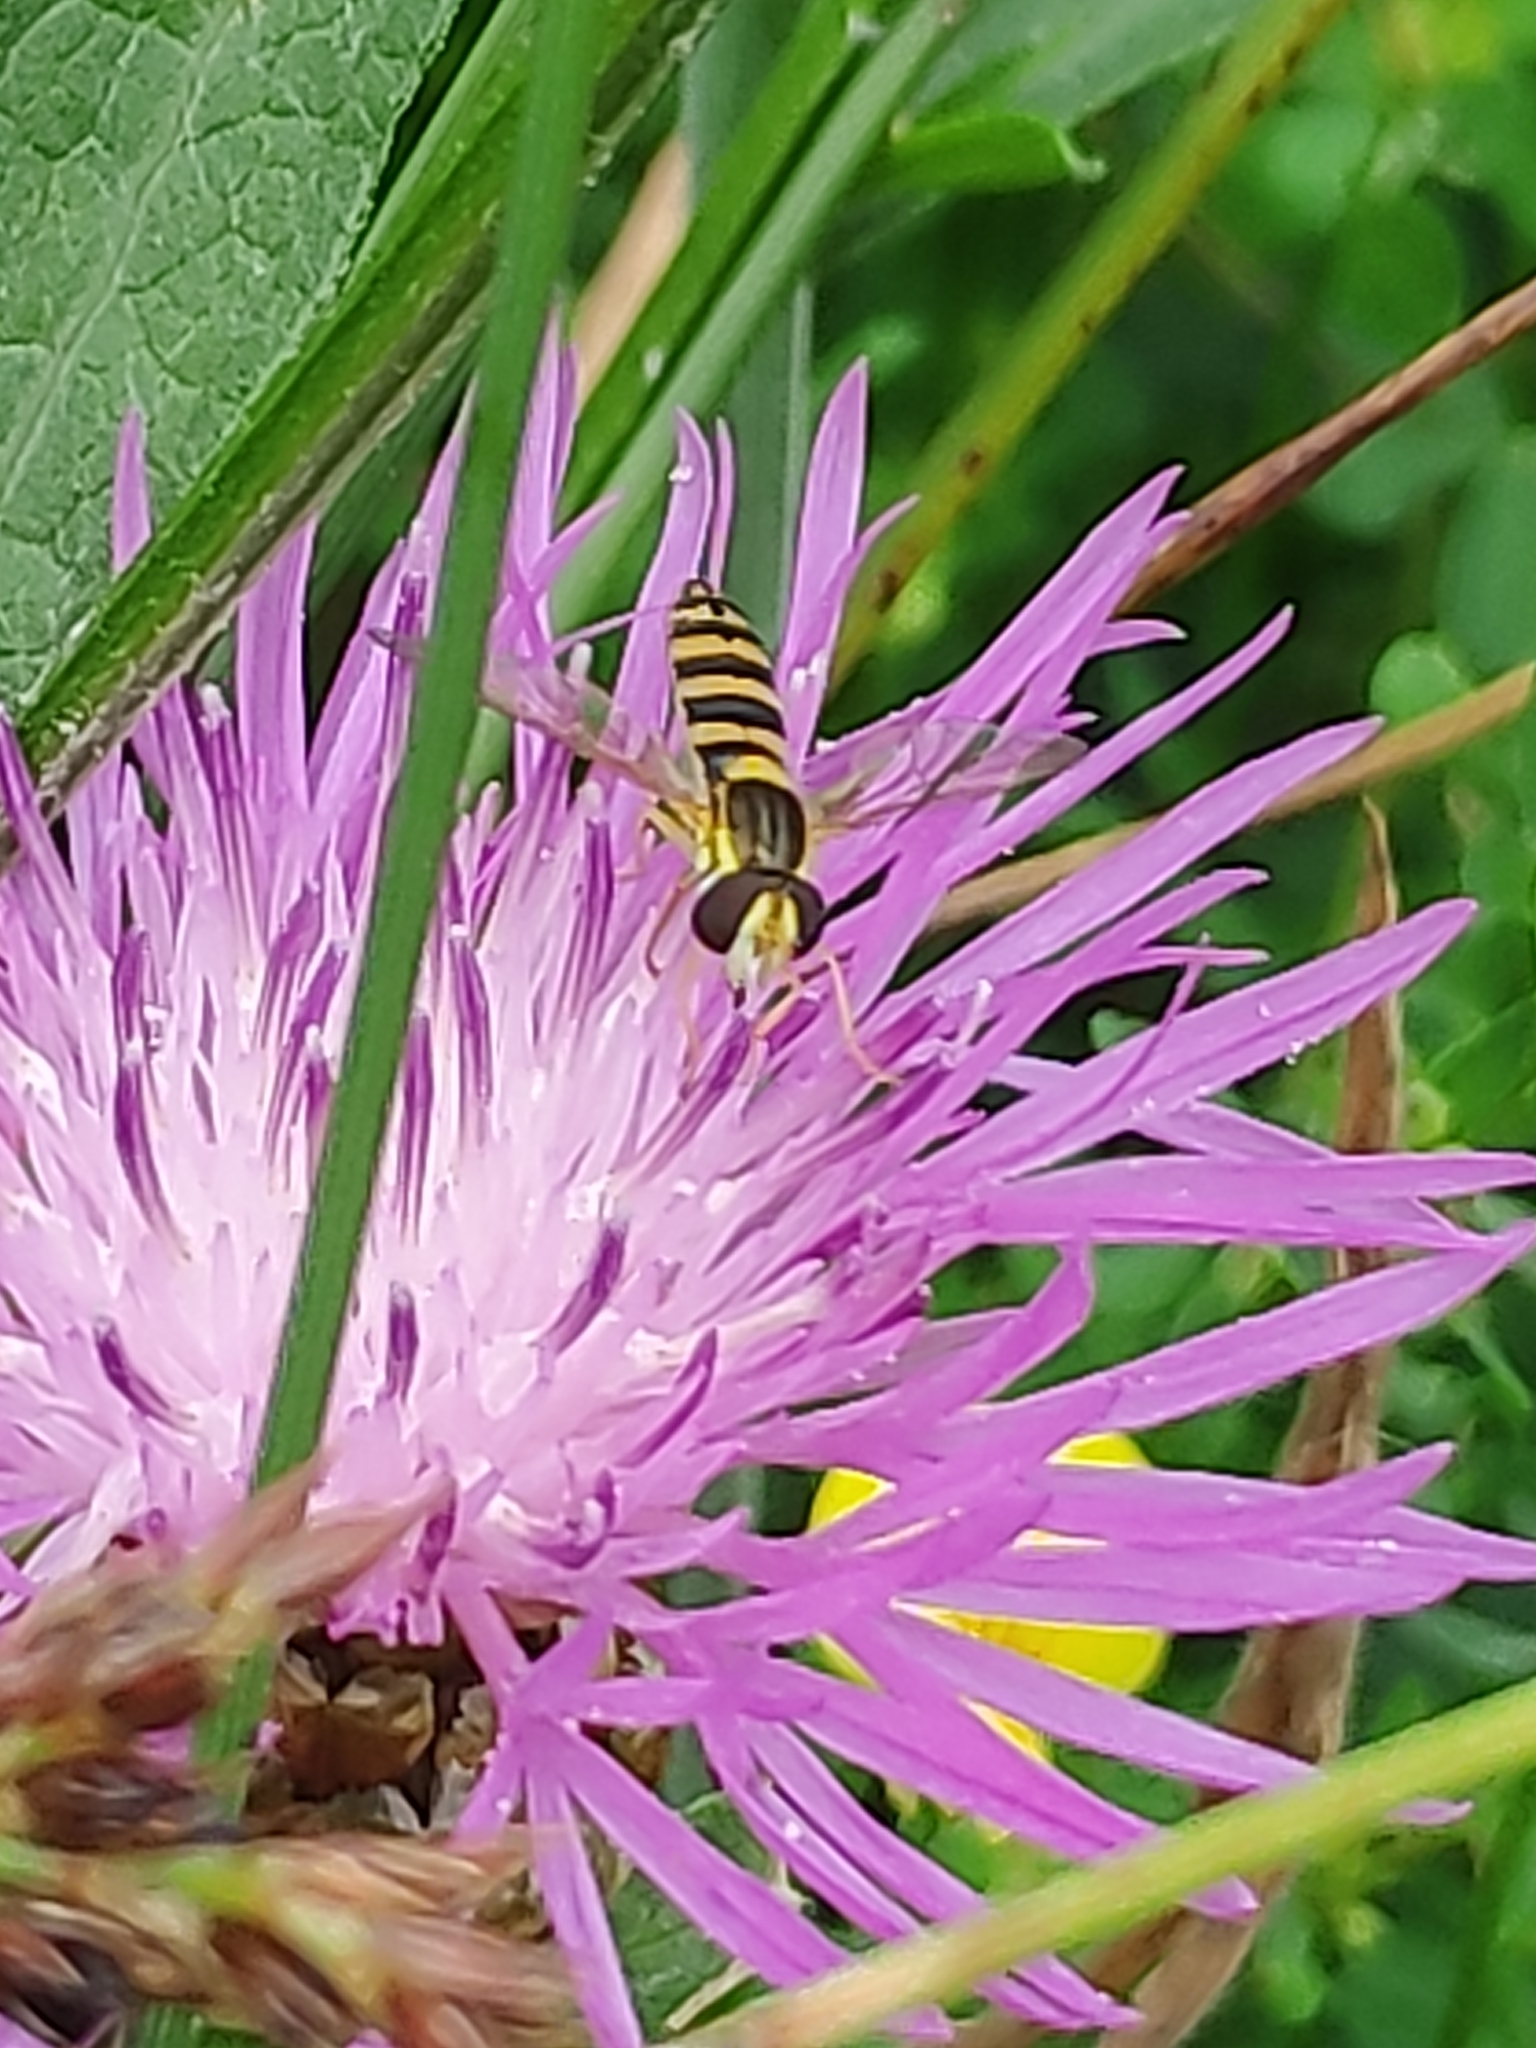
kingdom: Animalia
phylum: Arthropoda
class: Insecta
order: Diptera
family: Syrphidae
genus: Sphaerophoria
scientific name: Sphaerophoria
